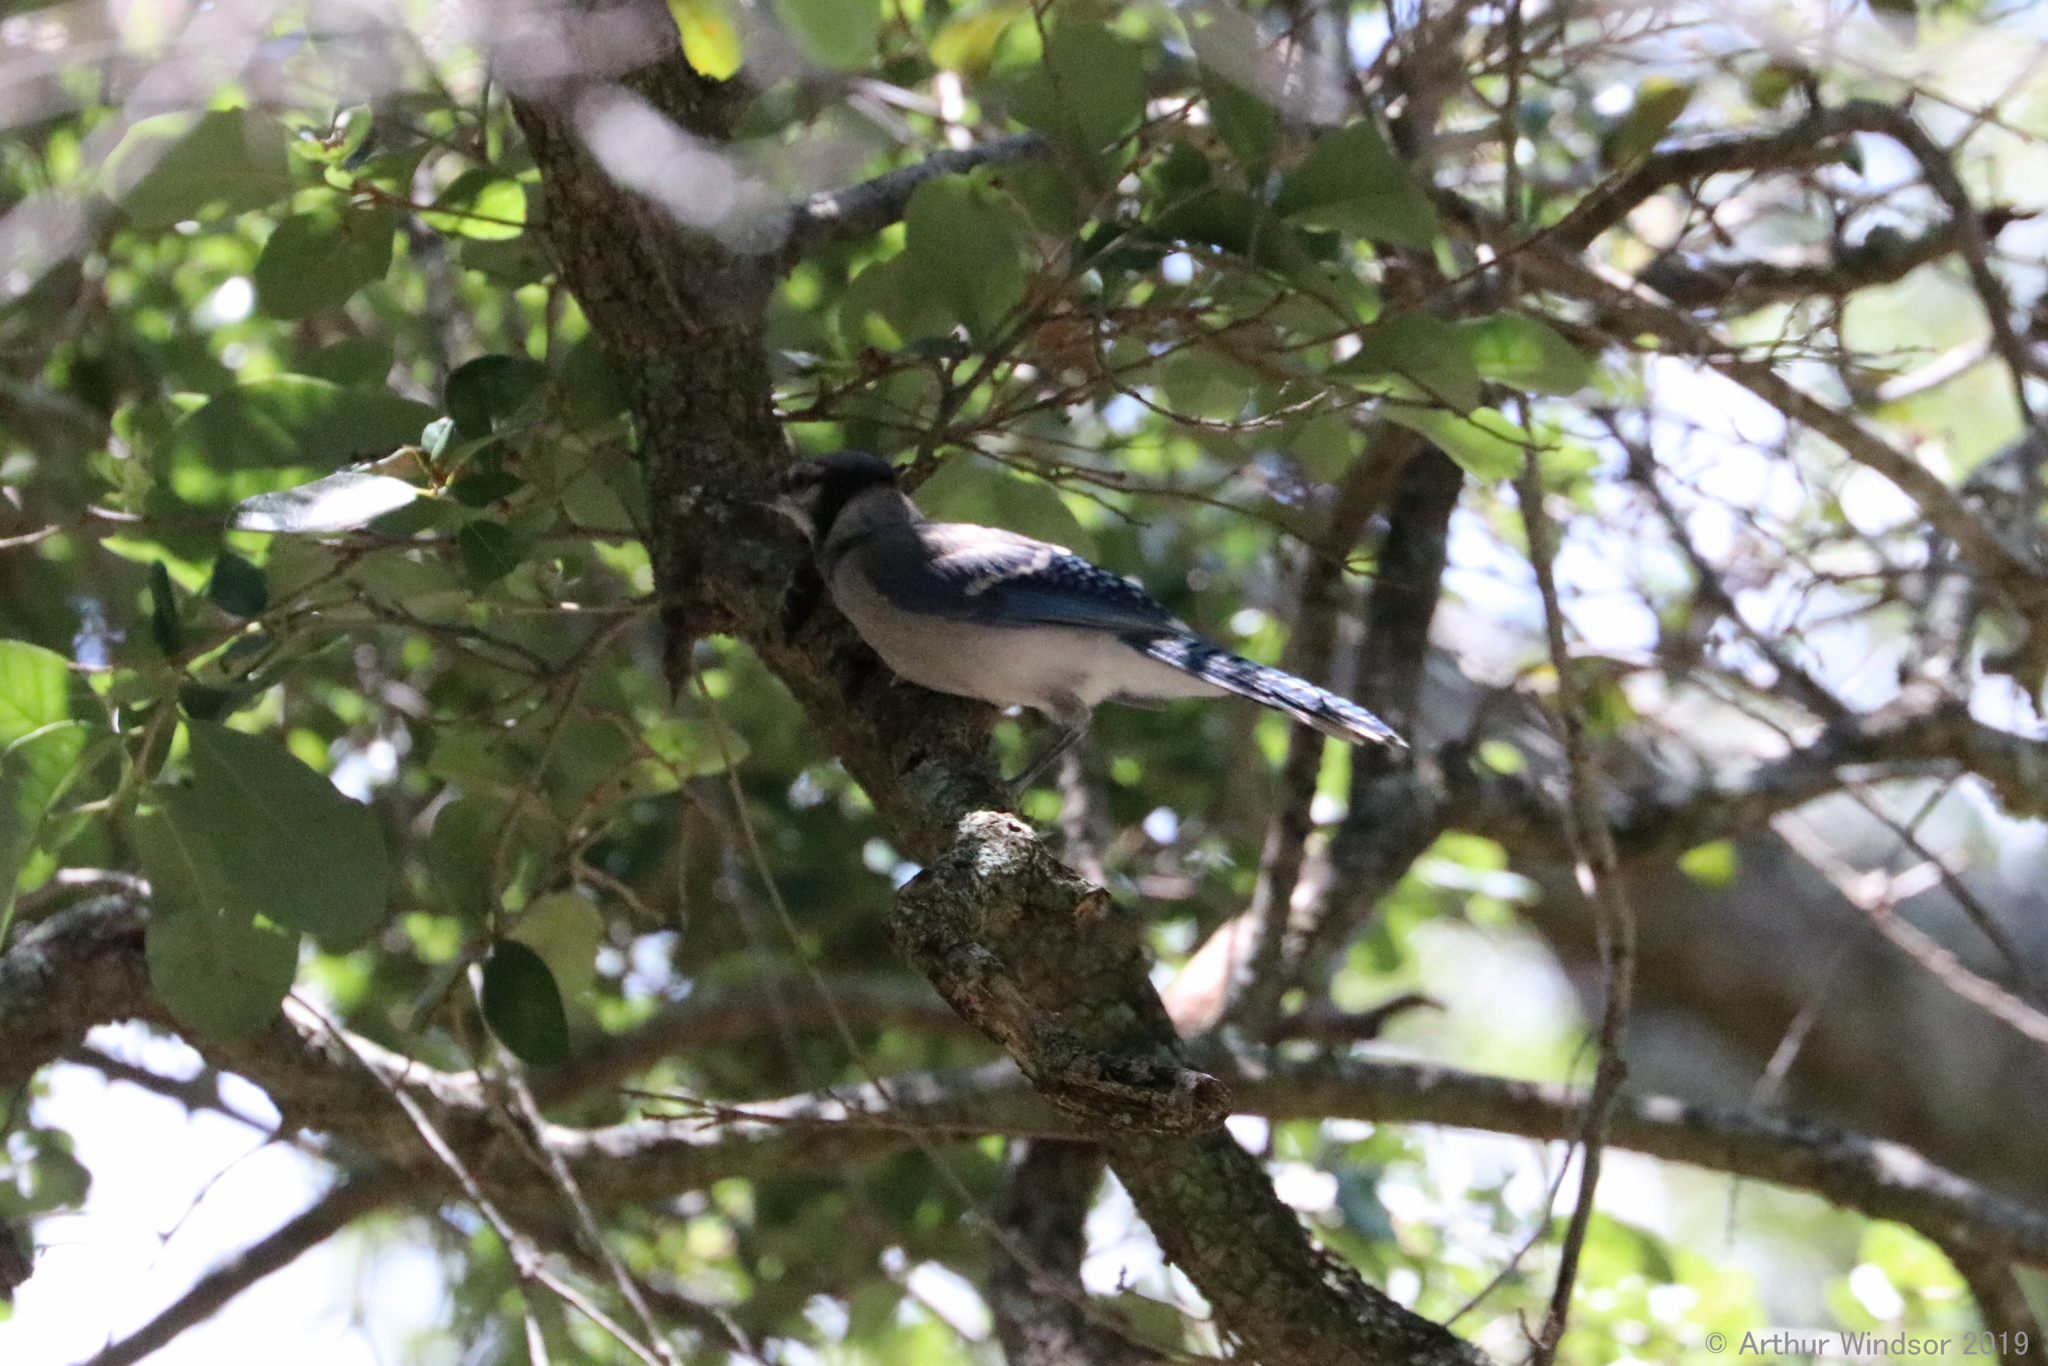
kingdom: Animalia
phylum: Chordata
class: Aves
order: Passeriformes
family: Corvidae
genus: Cyanocitta
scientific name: Cyanocitta cristata
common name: Blue jay
